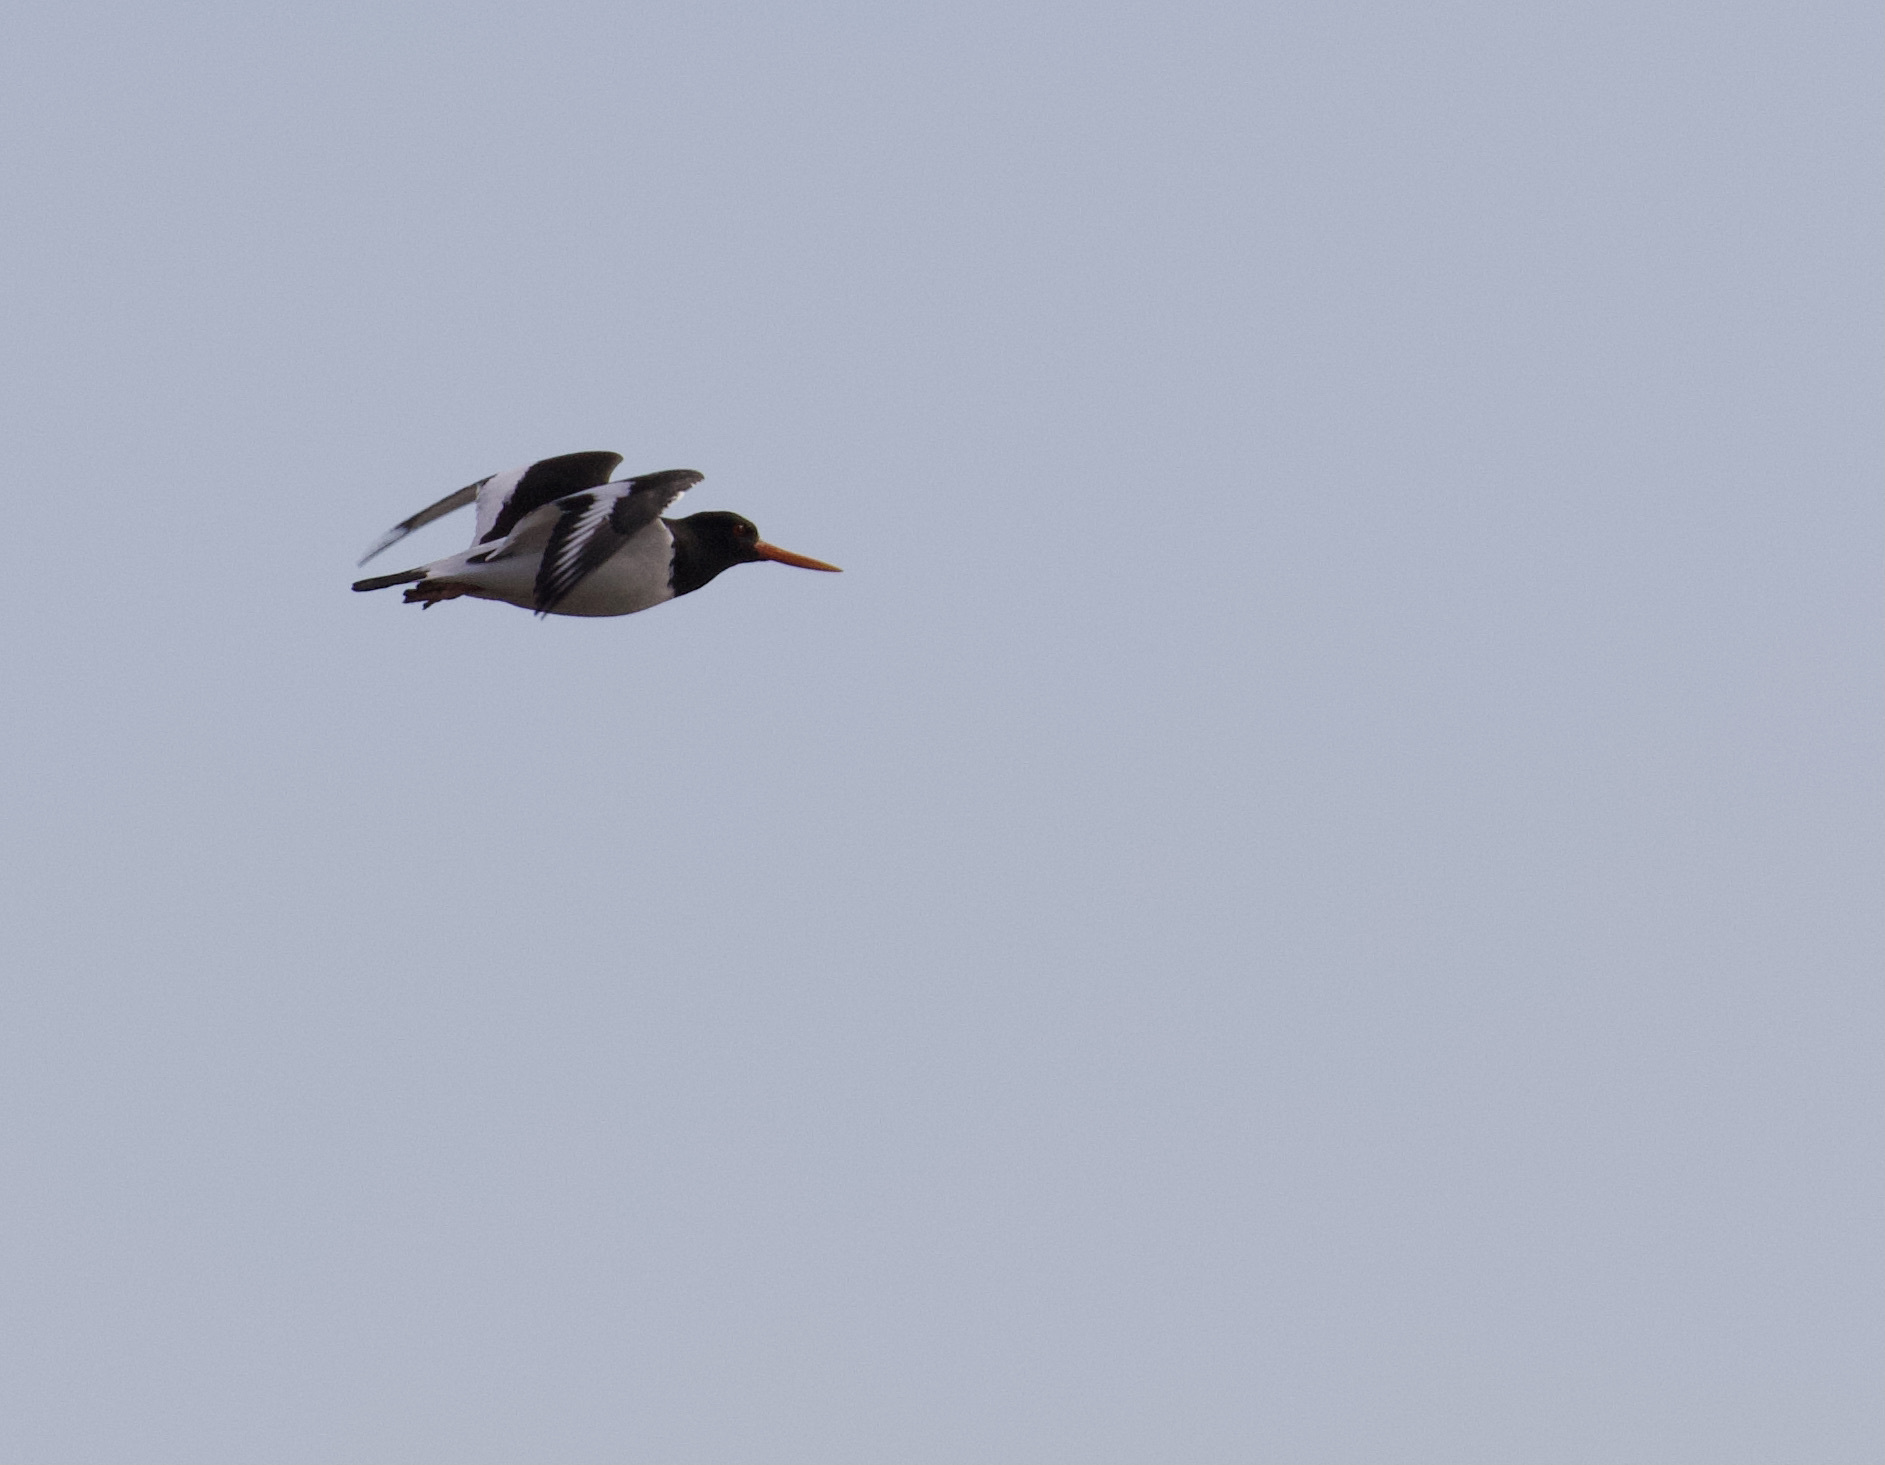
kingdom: Animalia
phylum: Chordata
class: Aves
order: Charadriiformes
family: Haematopodidae
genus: Haematopus
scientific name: Haematopus ostralegus
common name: Eurasian oystercatcher
